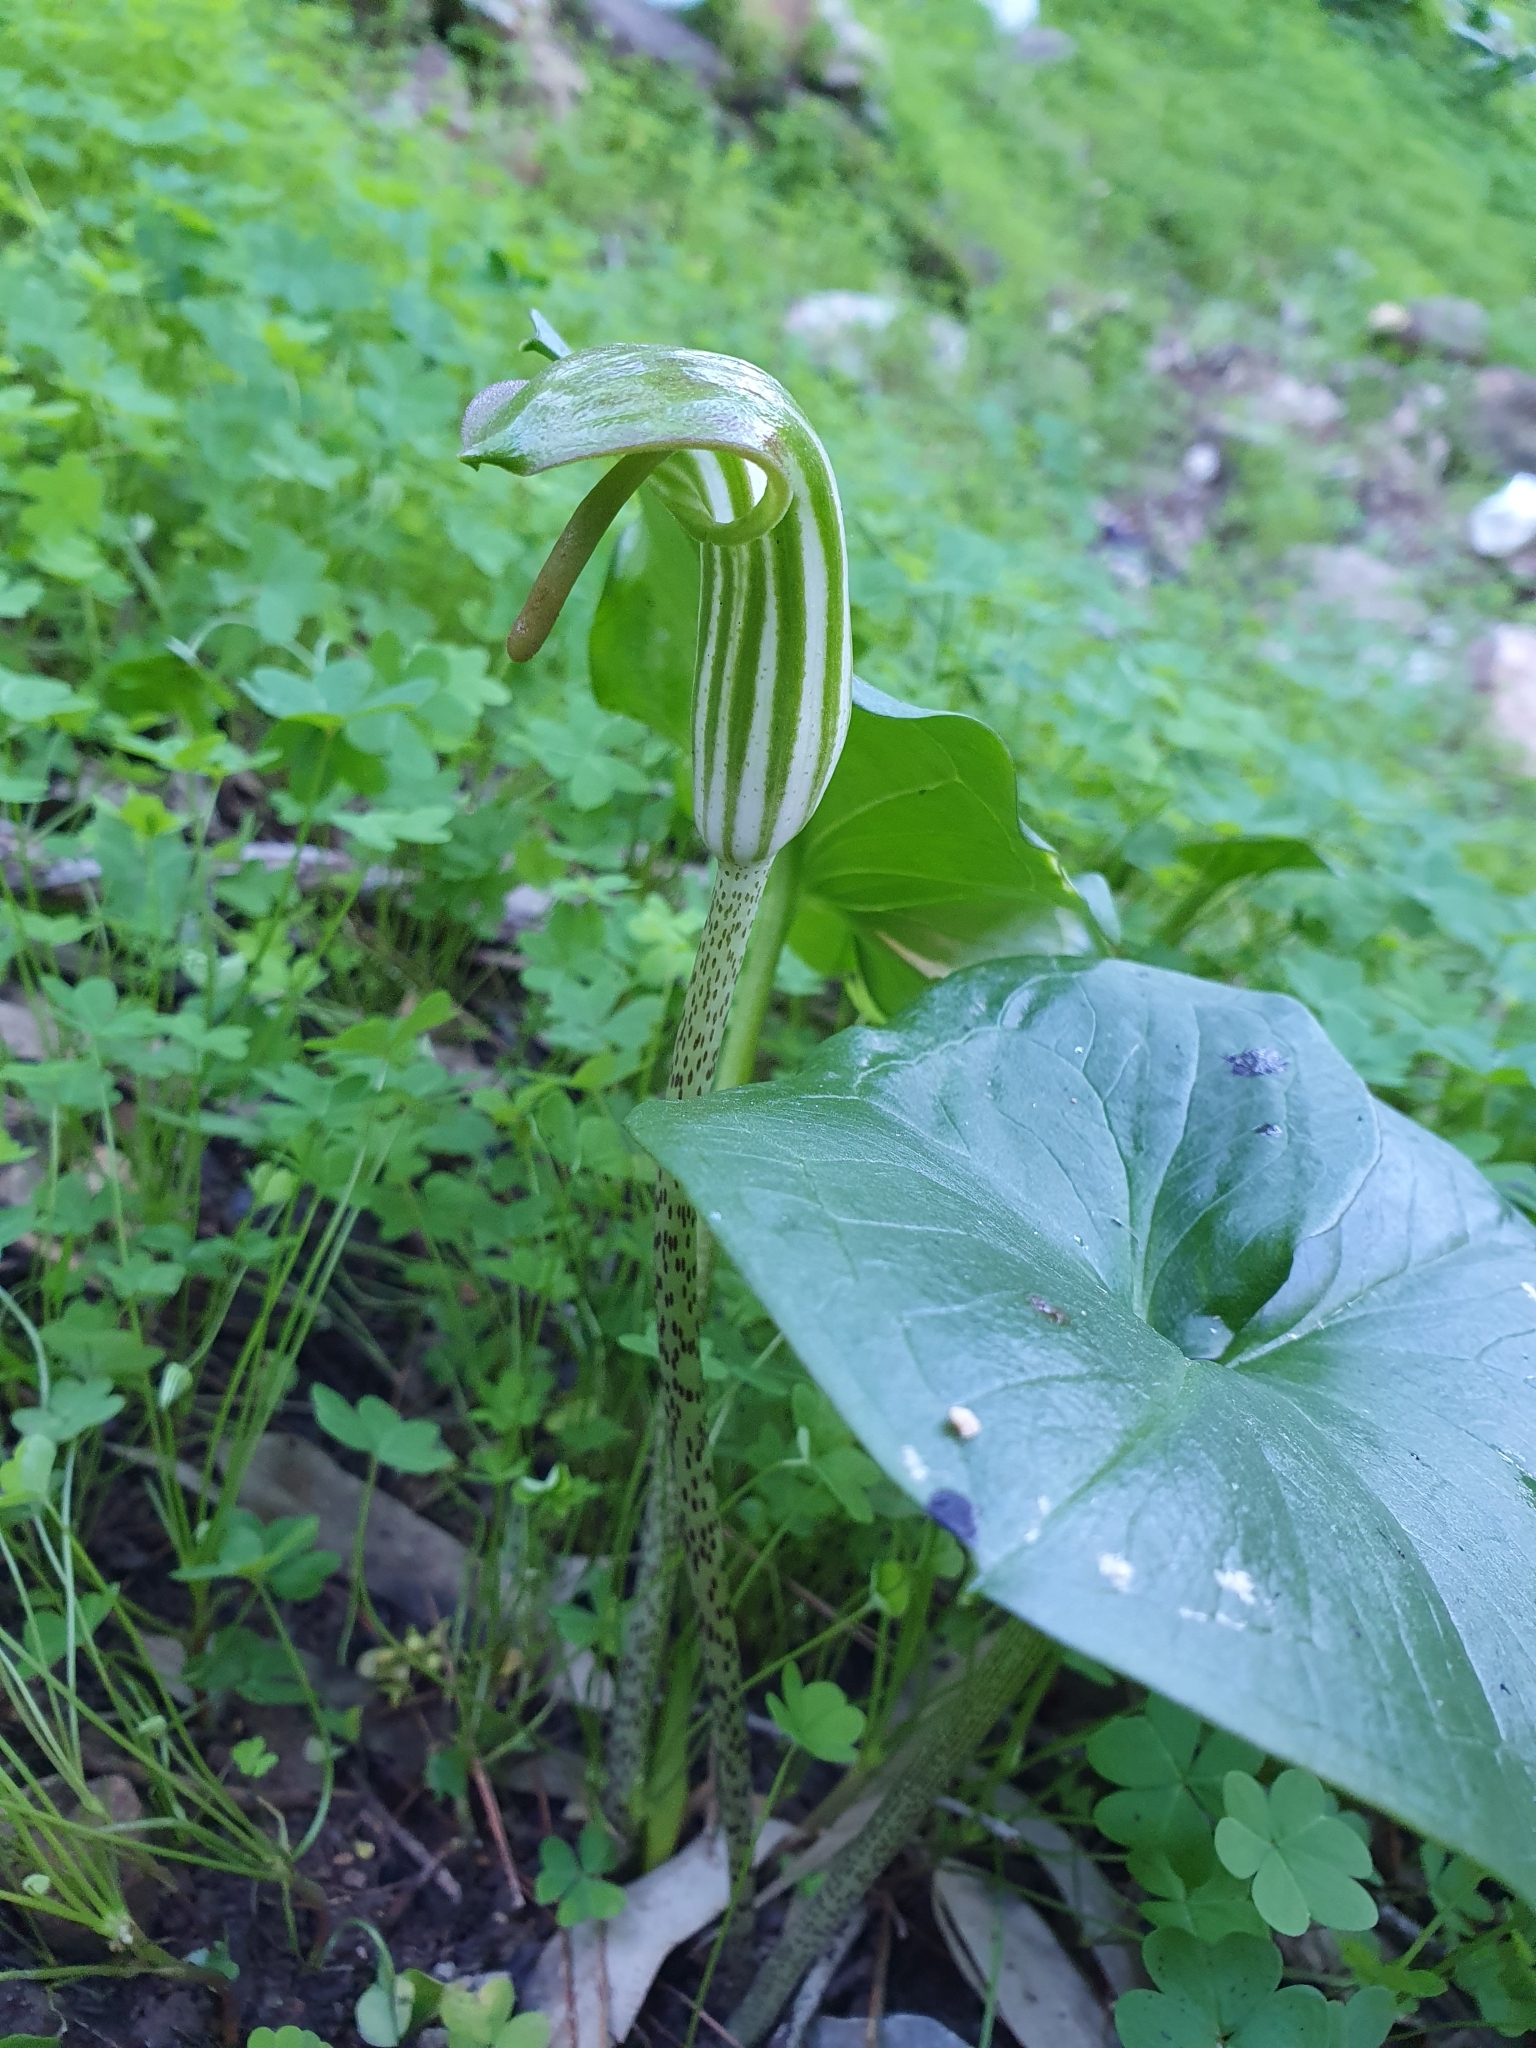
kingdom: Plantae
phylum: Tracheophyta
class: Liliopsida
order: Alismatales
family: Araceae
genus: Arisarum
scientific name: Arisarum vulgare
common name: Common arisarum
